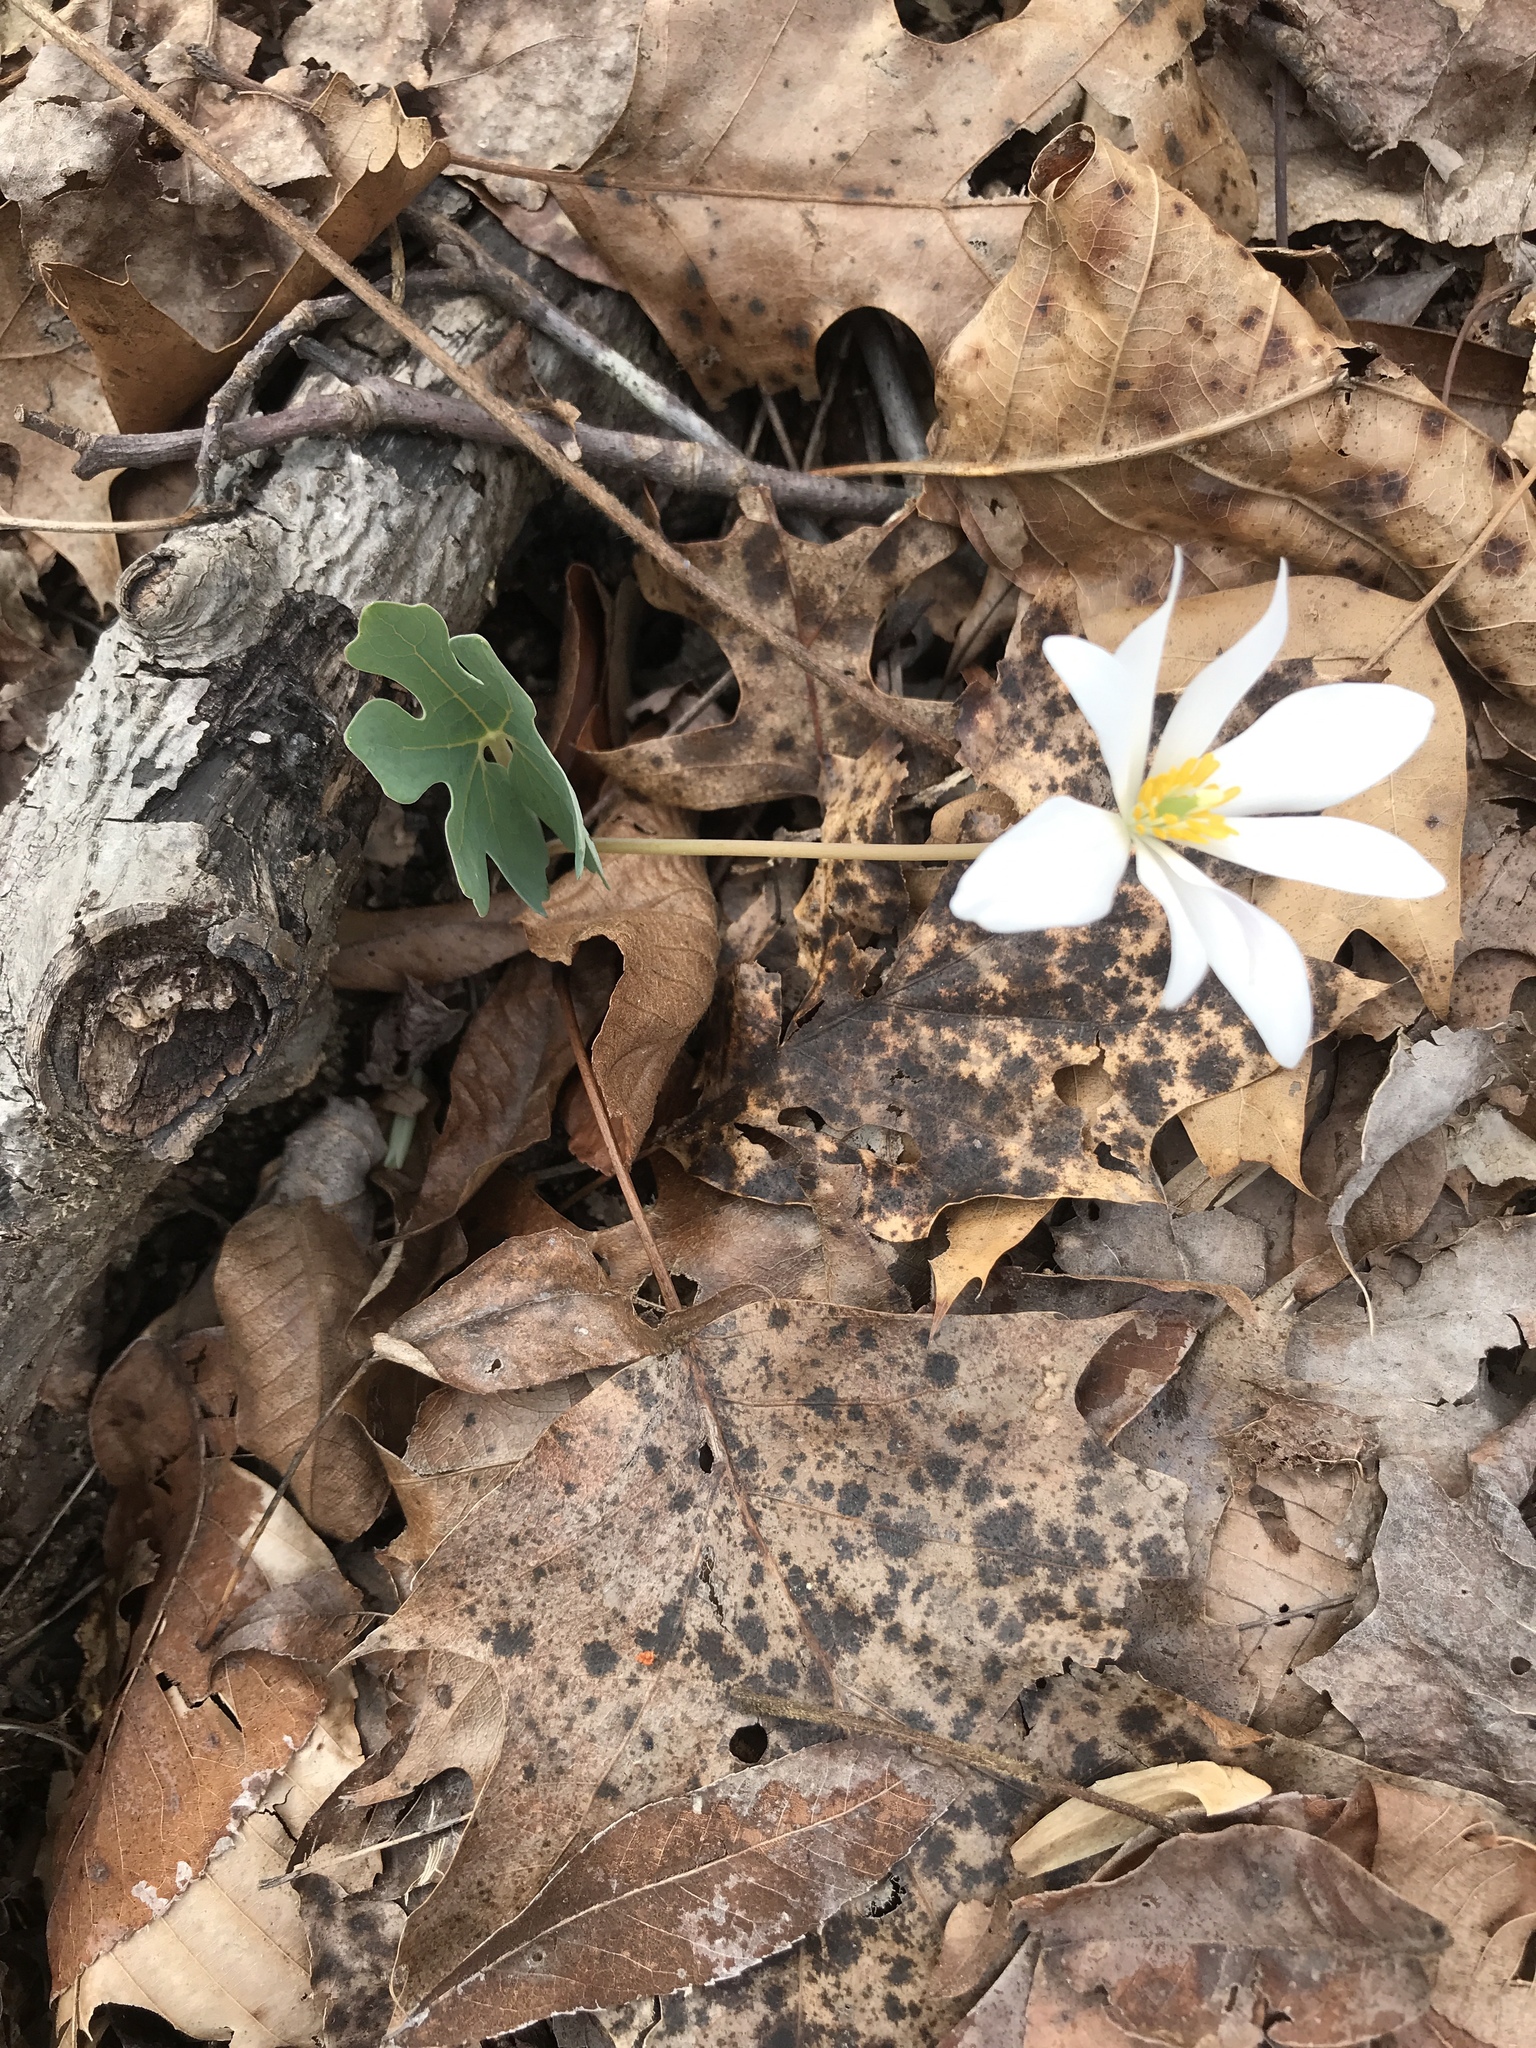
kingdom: Plantae
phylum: Tracheophyta
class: Magnoliopsida
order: Ranunculales
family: Papaveraceae
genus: Sanguinaria
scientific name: Sanguinaria canadensis
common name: Bloodroot
